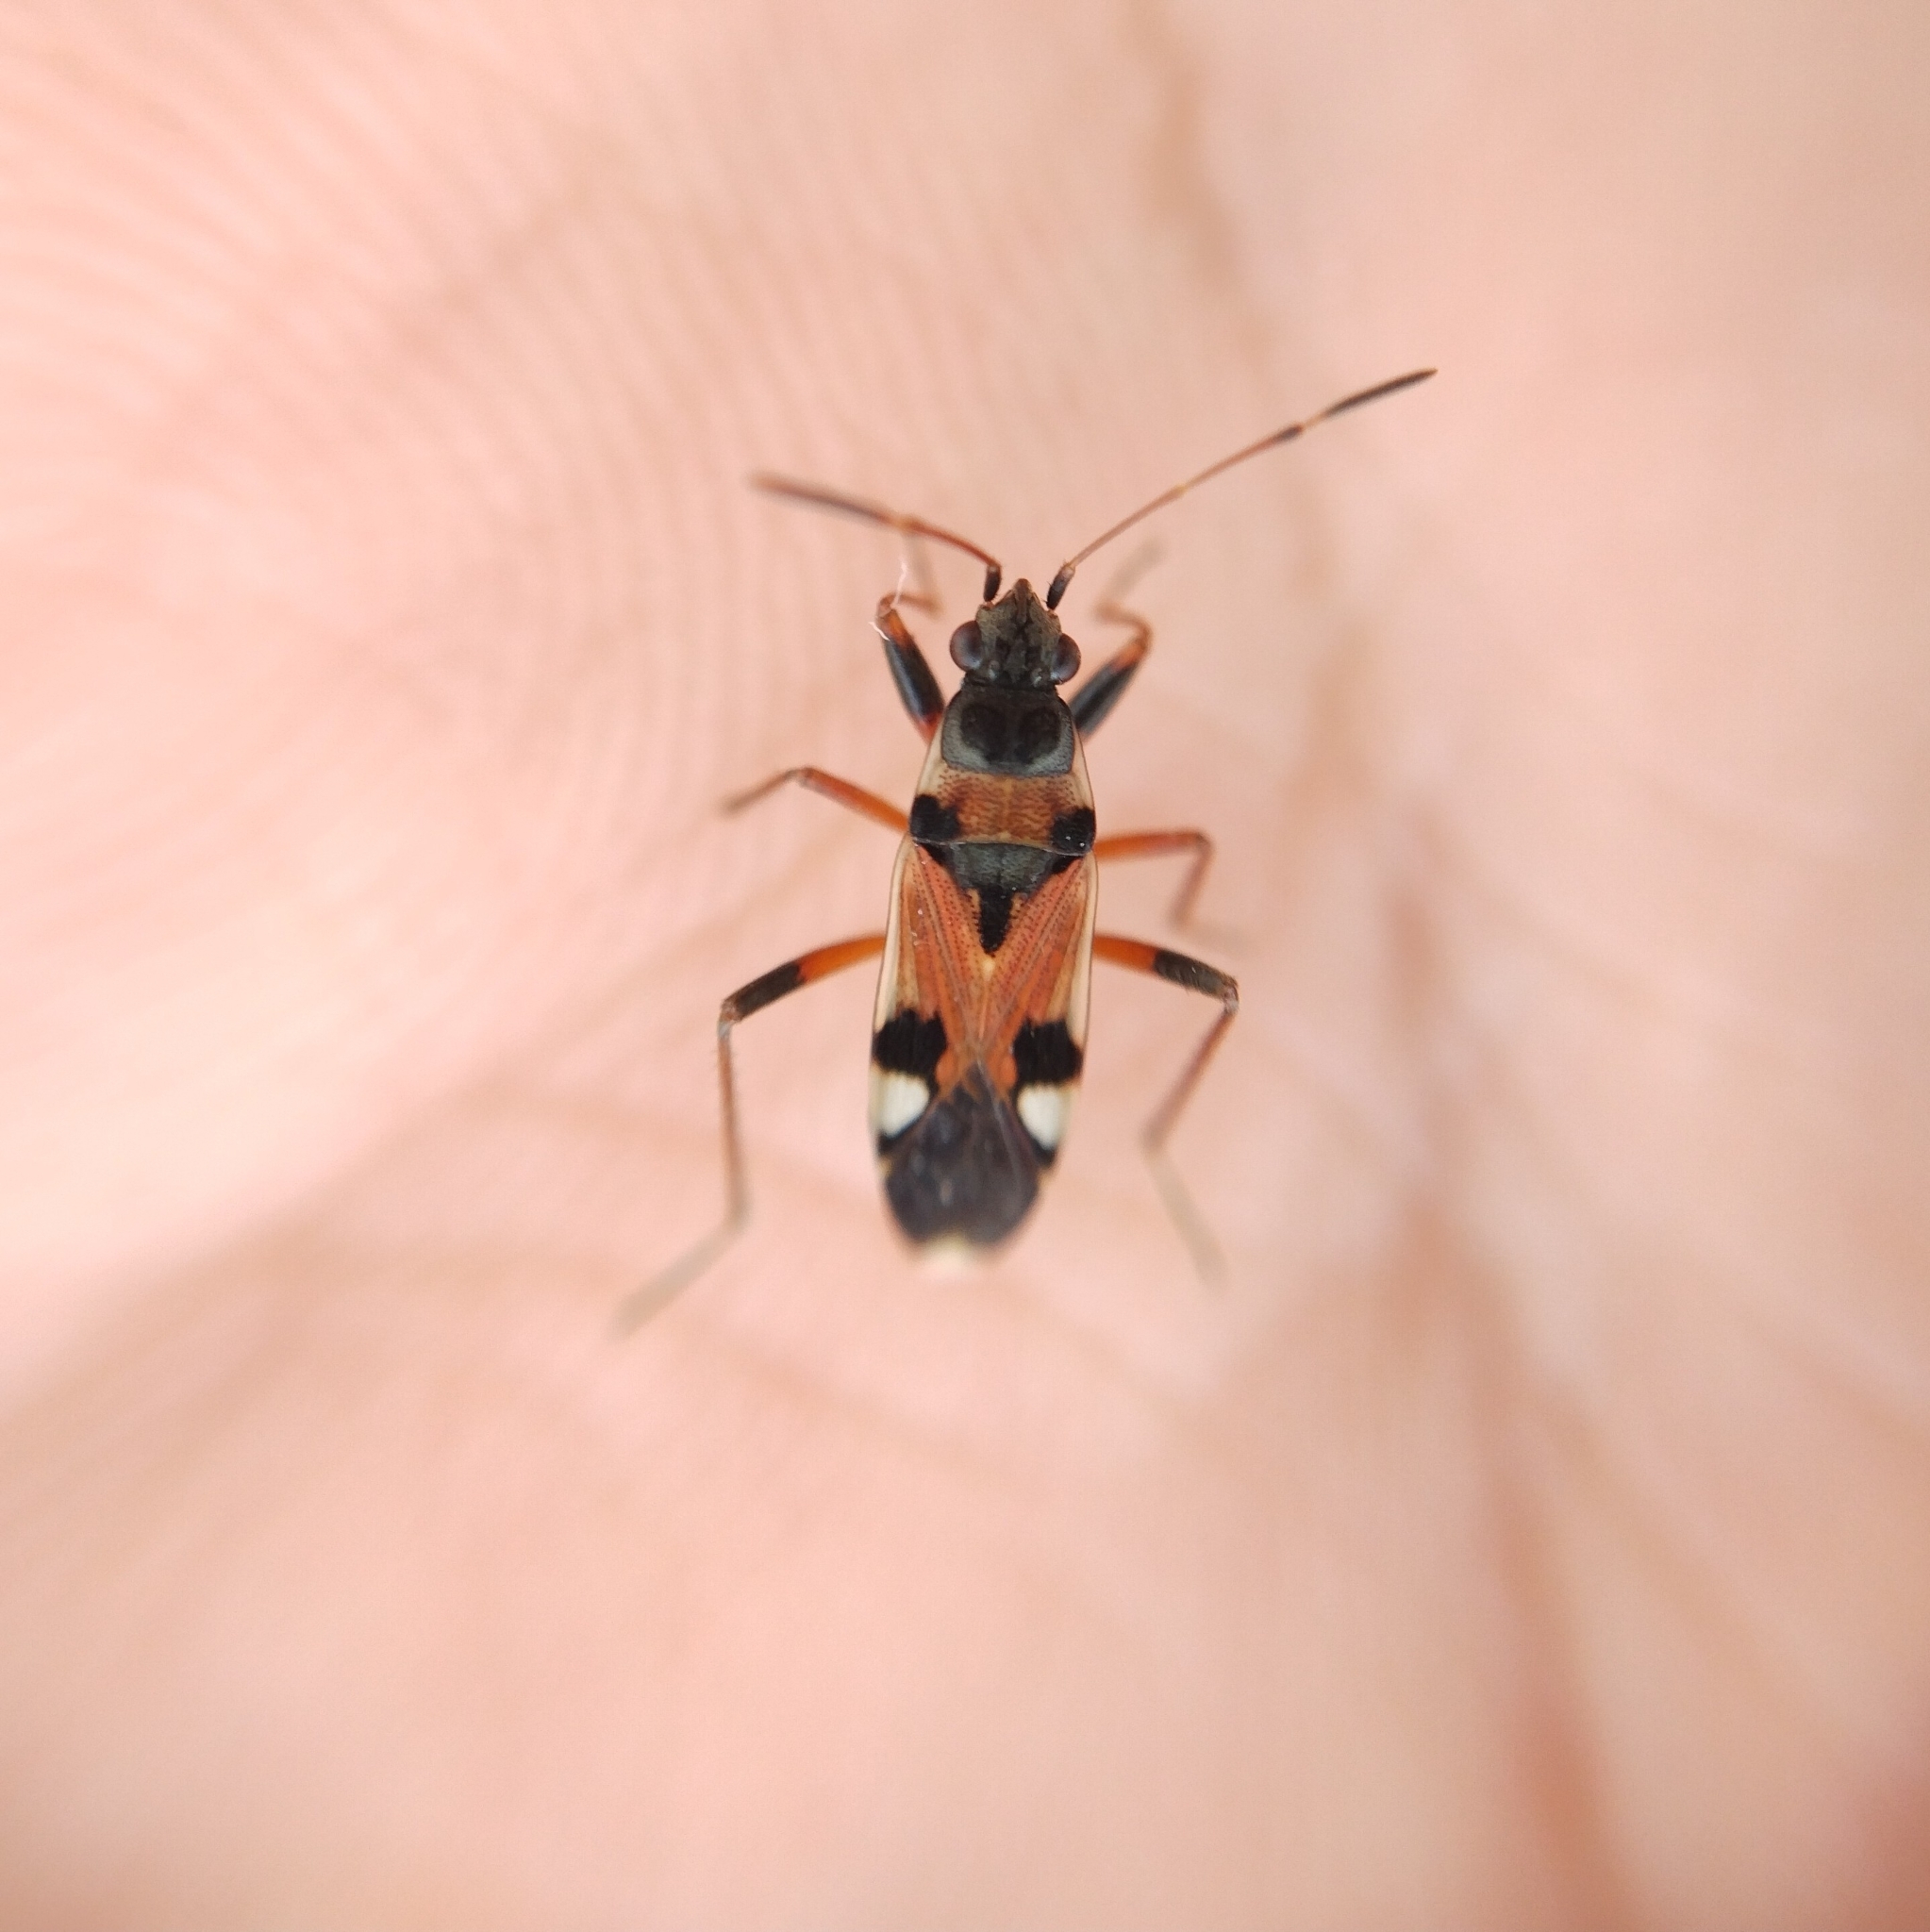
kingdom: Animalia
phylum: Arthropoda
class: Insecta
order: Hemiptera
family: Rhyparochromidae
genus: Beosus
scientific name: Beosus quadripunctatus
